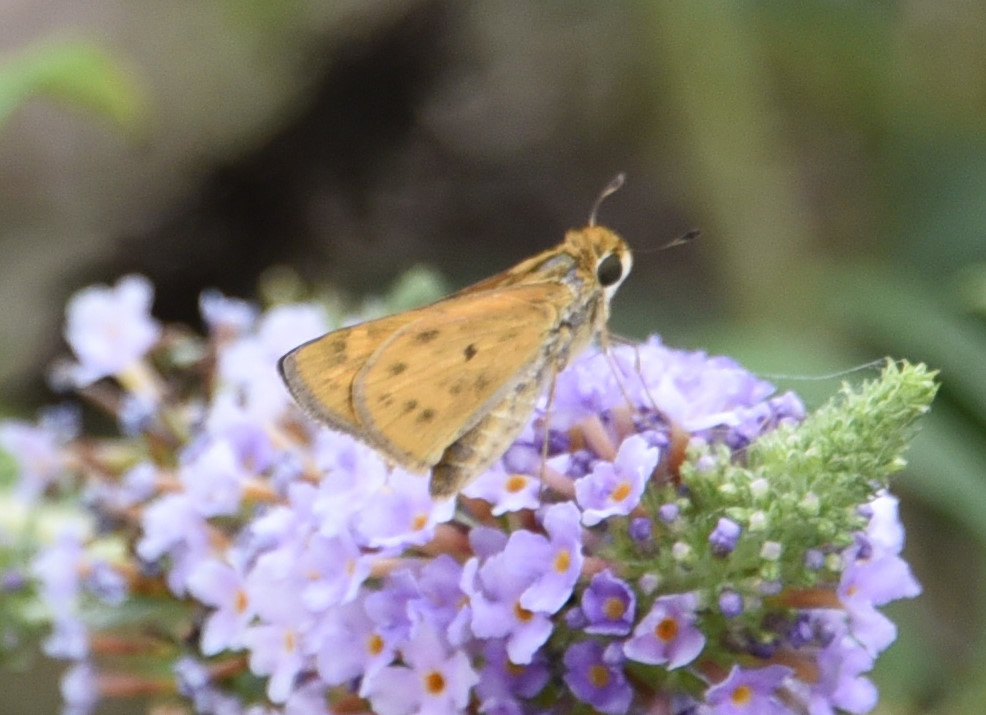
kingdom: Animalia
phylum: Arthropoda
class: Insecta
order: Lepidoptera
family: Hesperiidae
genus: Hylephila
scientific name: Hylephila phyleus
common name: Fiery skipper
